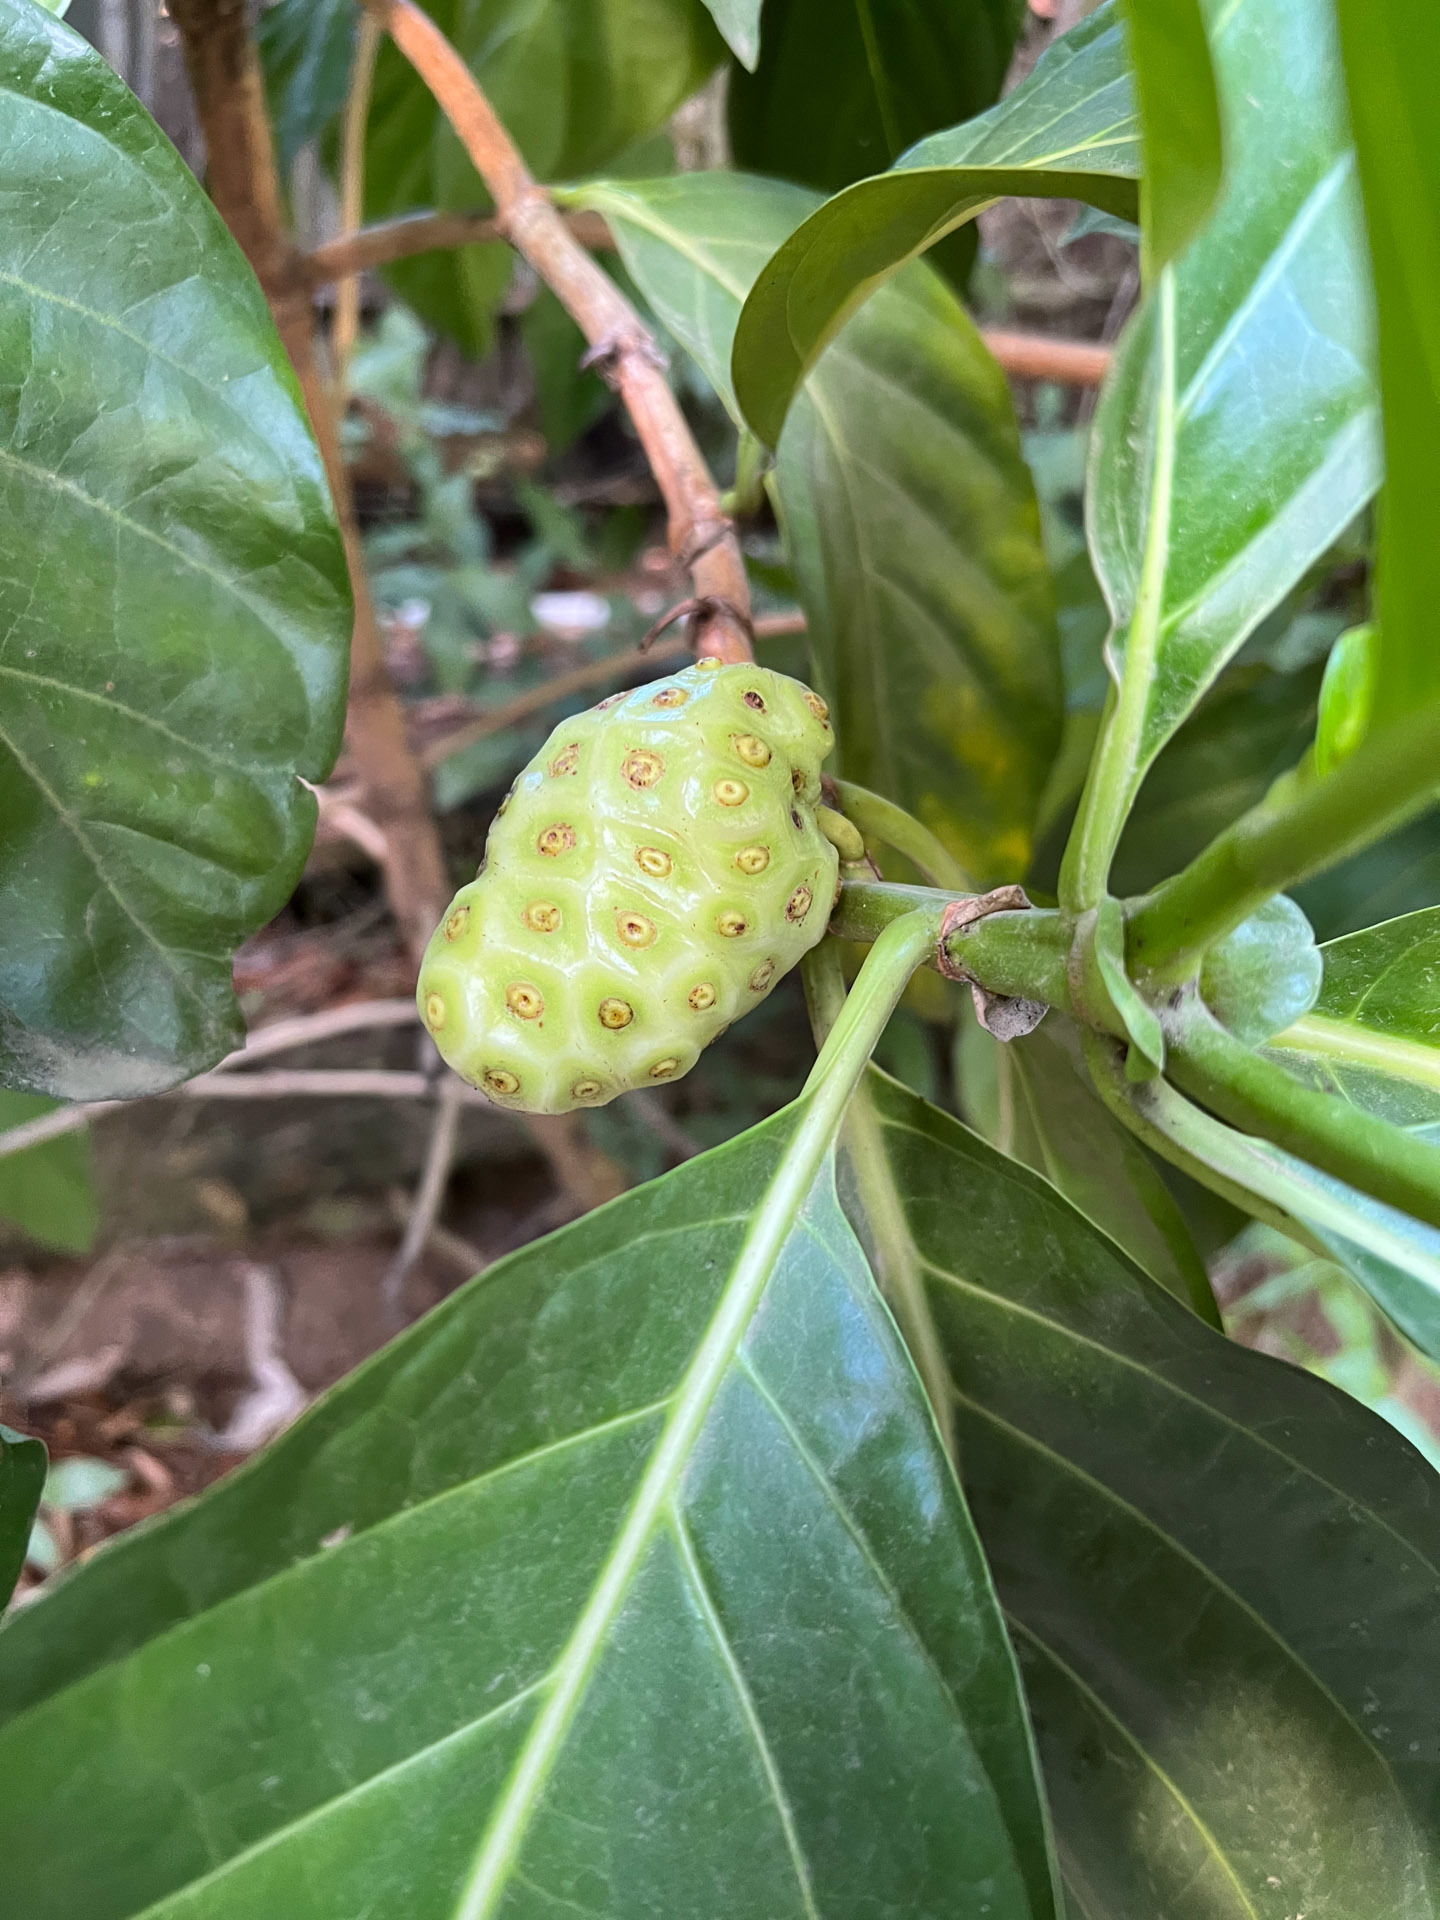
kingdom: Plantae
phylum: Tracheophyta
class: Magnoliopsida
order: Gentianales
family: Rubiaceae
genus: Morinda
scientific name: Morinda citrifolia
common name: Indian-mulberry
